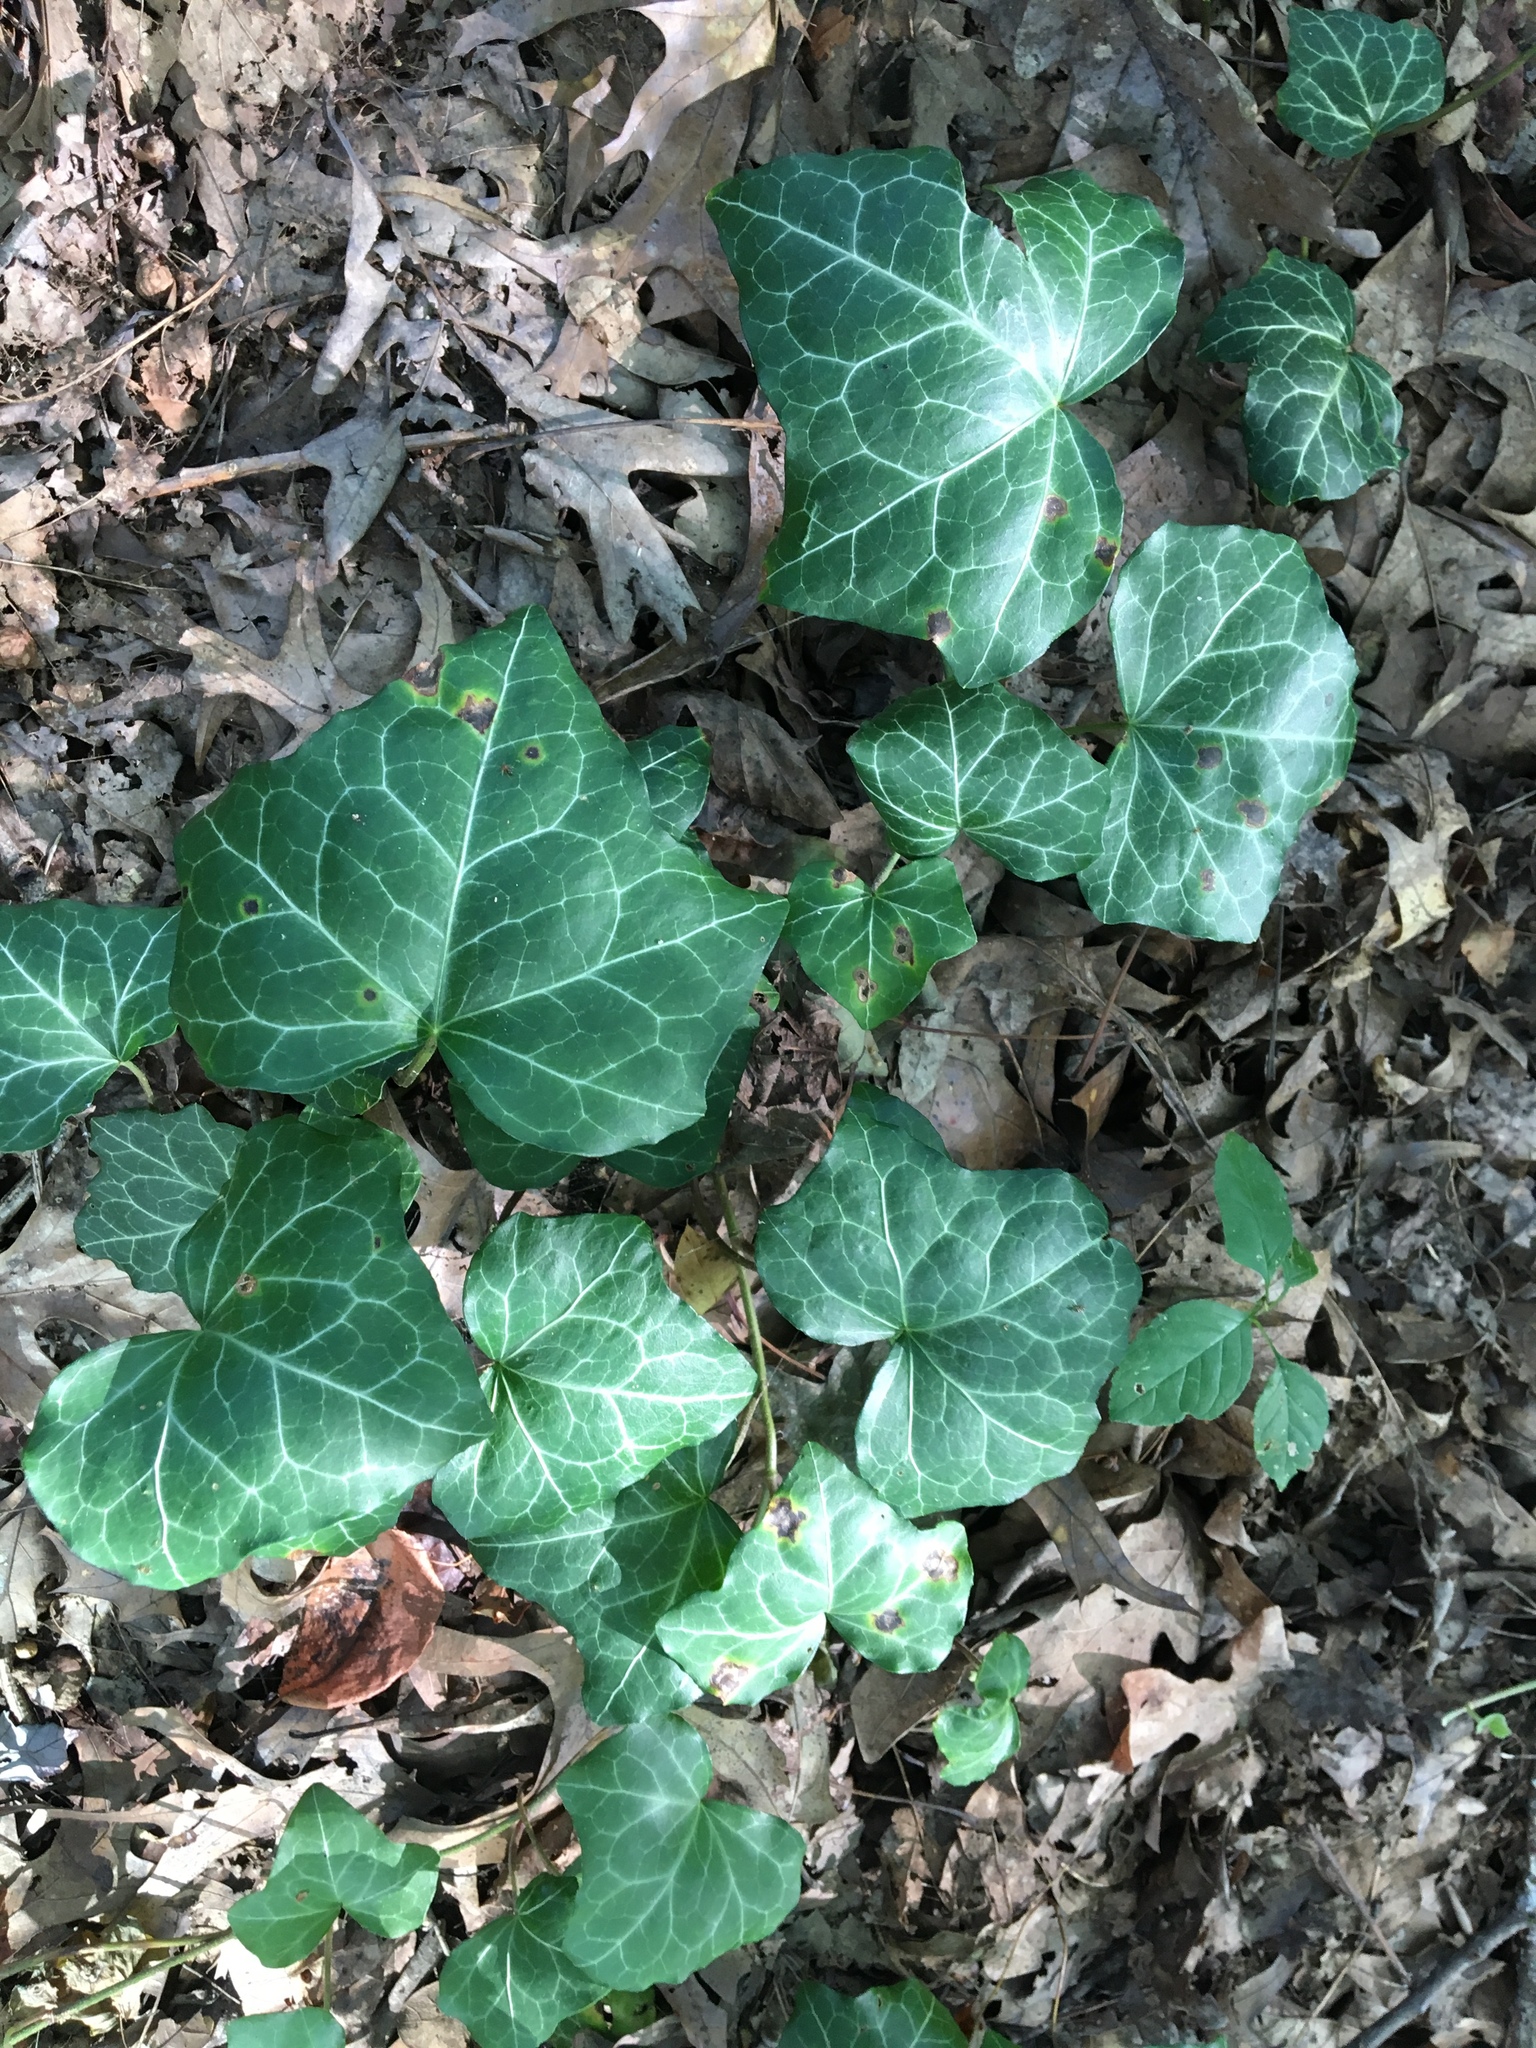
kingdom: Plantae
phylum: Tracheophyta
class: Magnoliopsida
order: Apiales
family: Araliaceae
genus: Hedera
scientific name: Hedera helix
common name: Ivy
